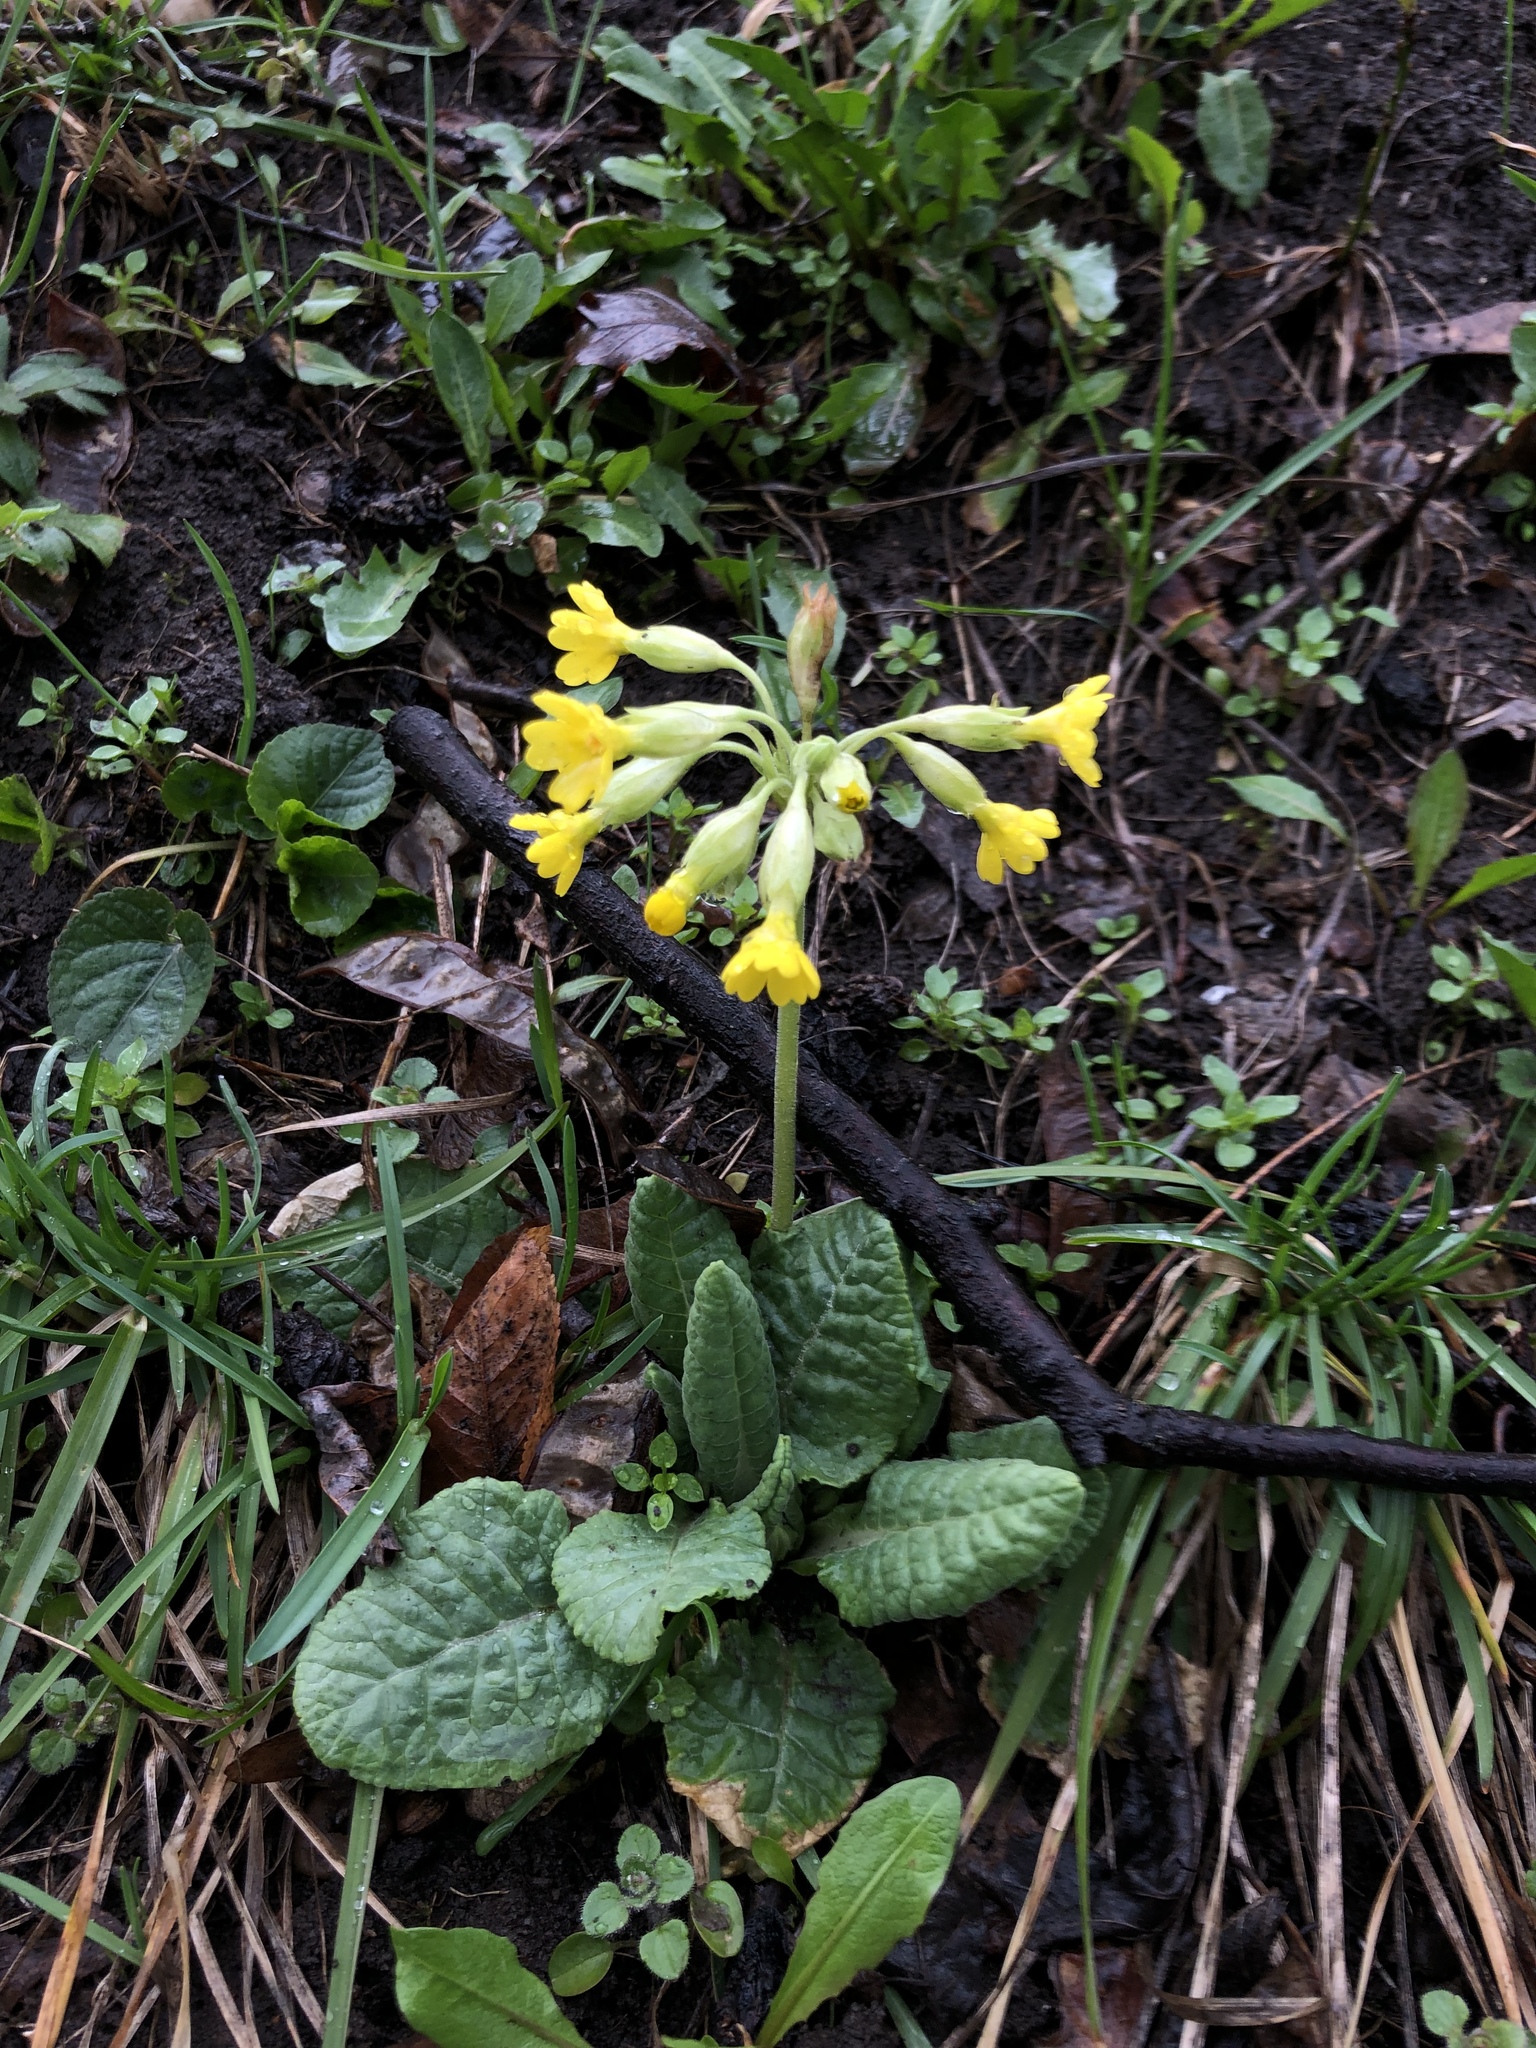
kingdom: Plantae
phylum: Tracheophyta
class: Magnoliopsida
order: Ericales
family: Primulaceae
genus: Primula
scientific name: Primula veris
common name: Cowslip
